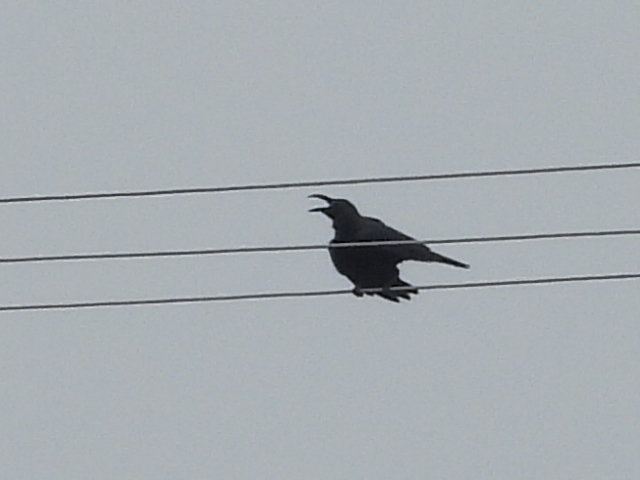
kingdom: Animalia
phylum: Chordata
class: Aves
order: Passeriformes
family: Corvidae
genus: Corvus
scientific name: Corvus macrorhynchos
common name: Large-billed crow
